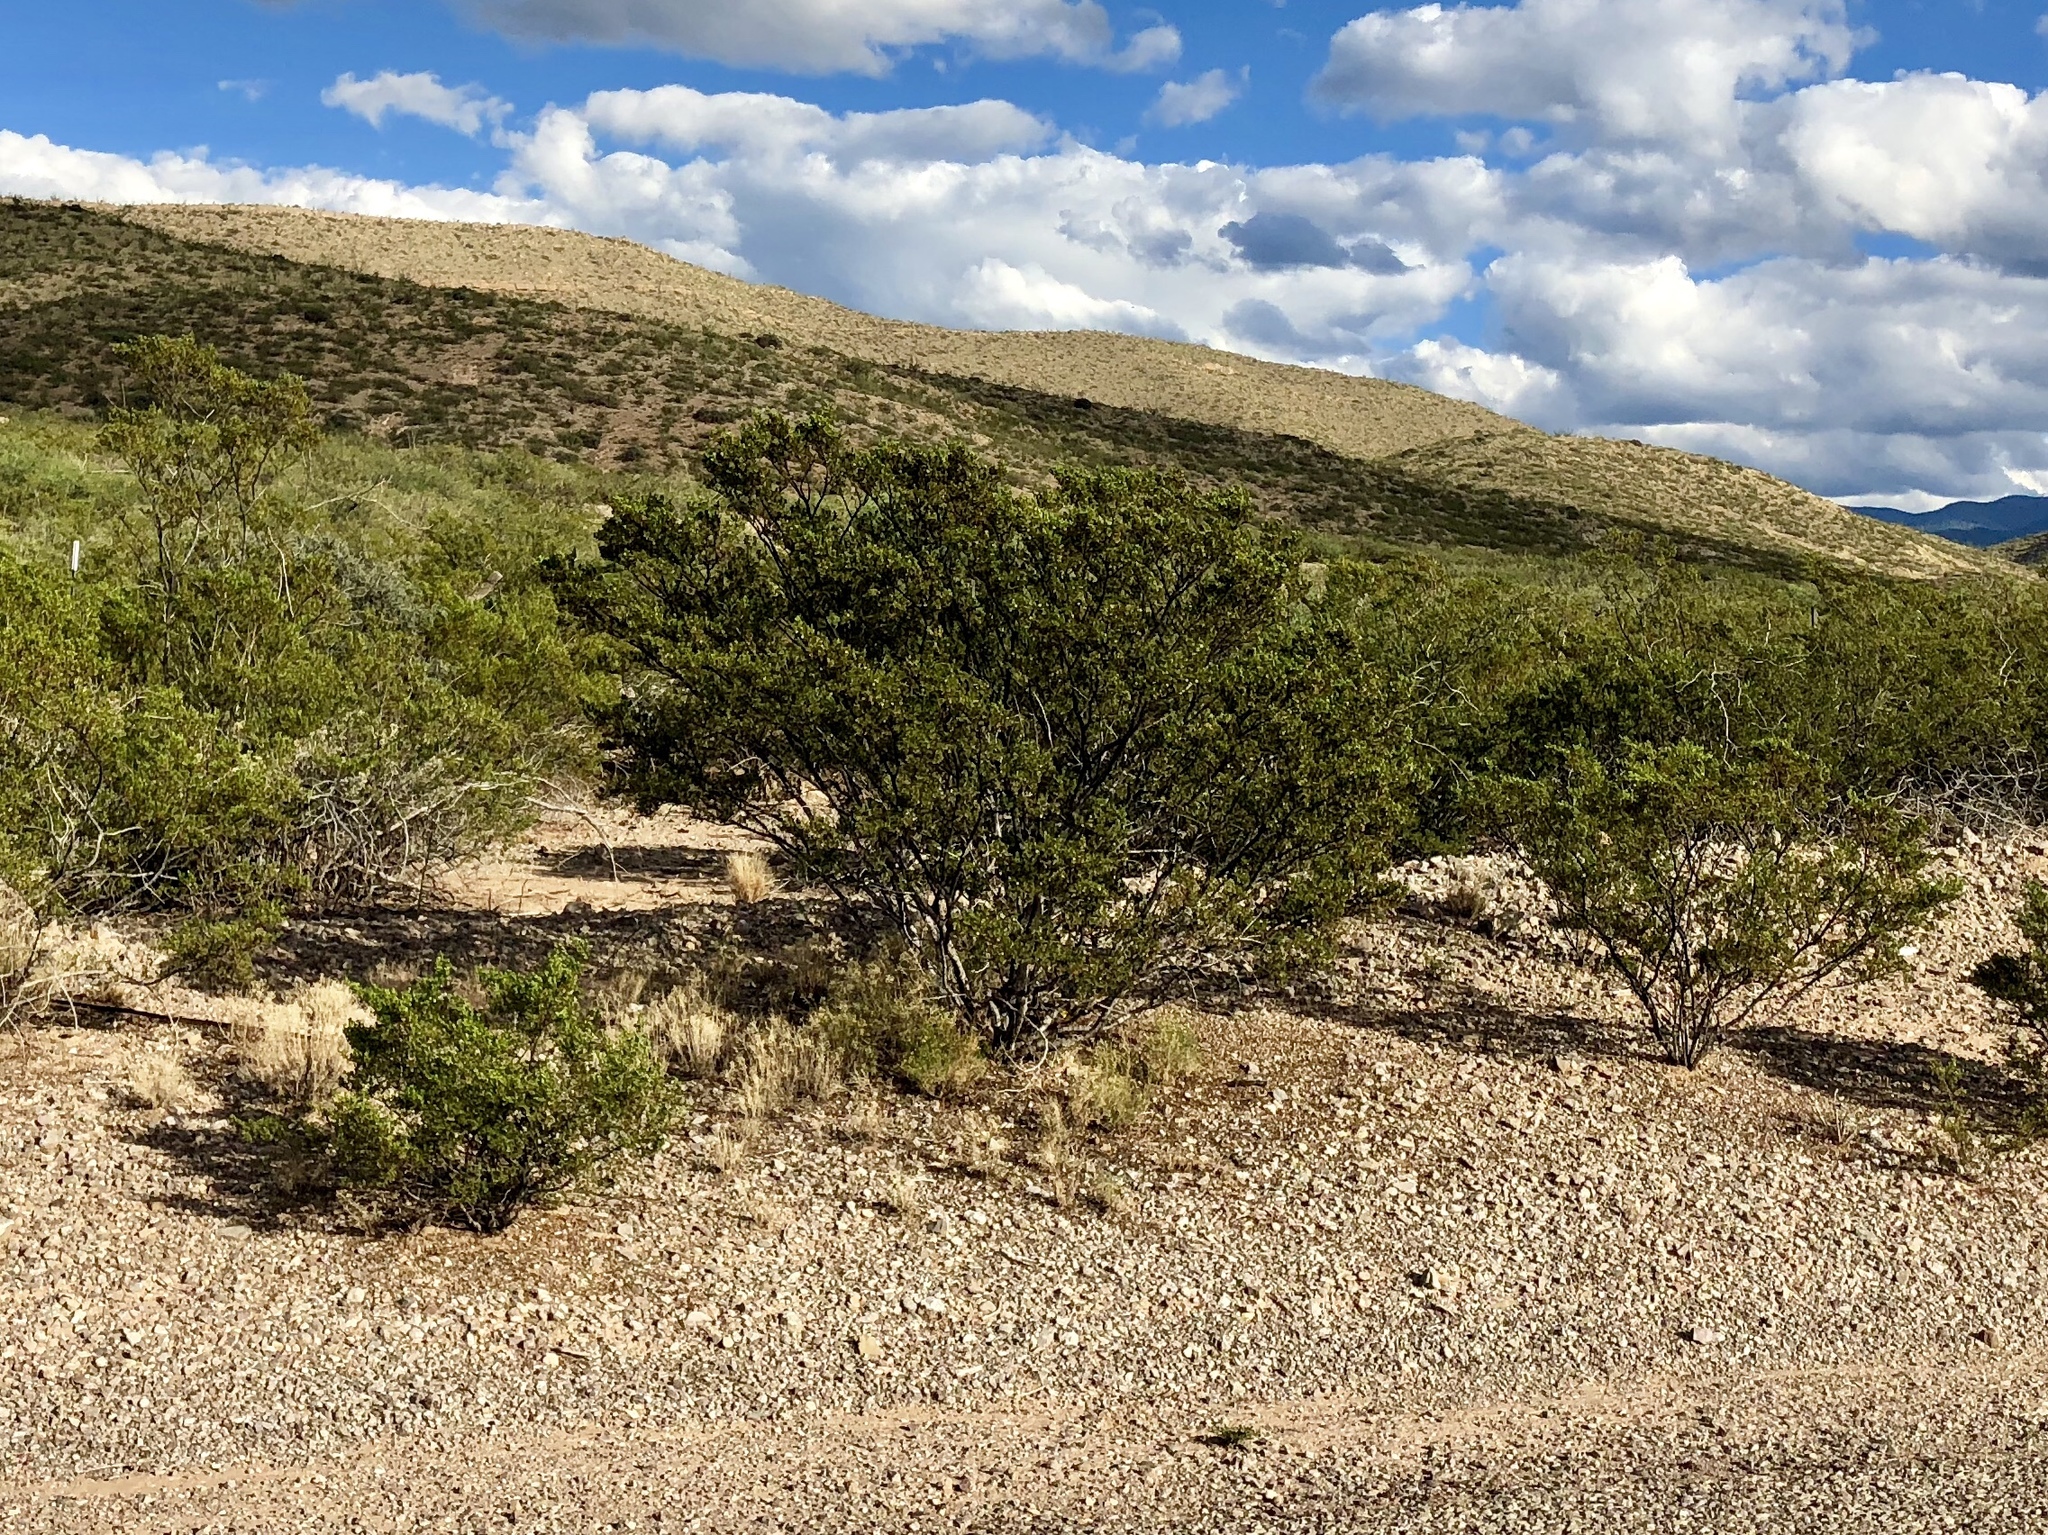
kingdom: Plantae
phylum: Tracheophyta
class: Magnoliopsida
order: Zygophyllales
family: Zygophyllaceae
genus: Larrea
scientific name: Larrea tridentata
